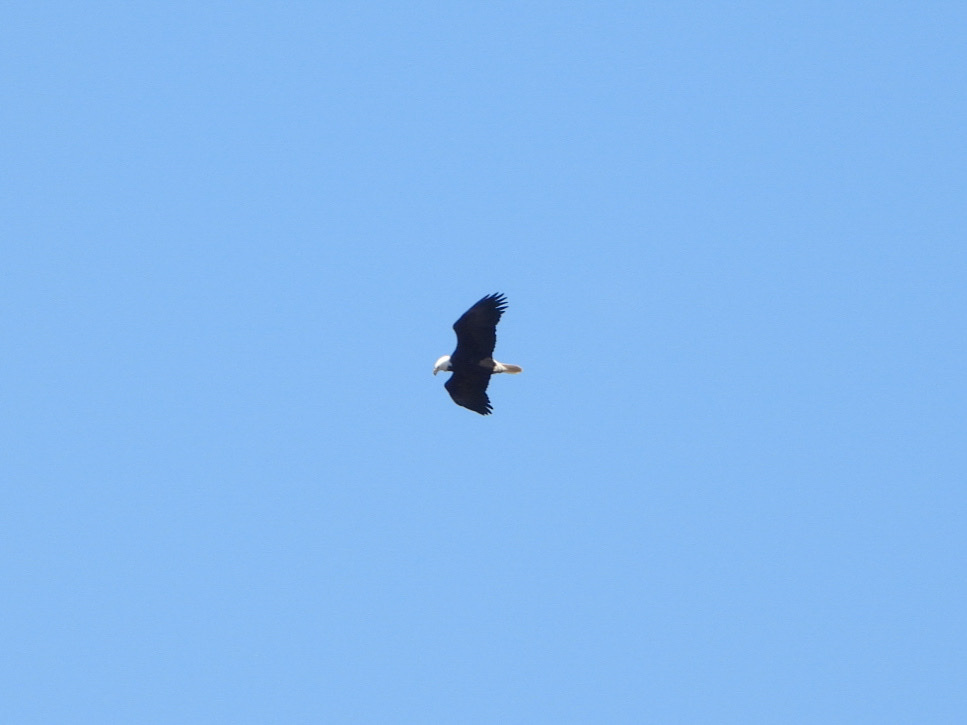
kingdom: Animalia
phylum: Chordata
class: Aves
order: Accipitriformes
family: Accipitridae
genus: Haliaeetus
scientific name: Haliaeetus leucocephalus
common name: Bald eagle
